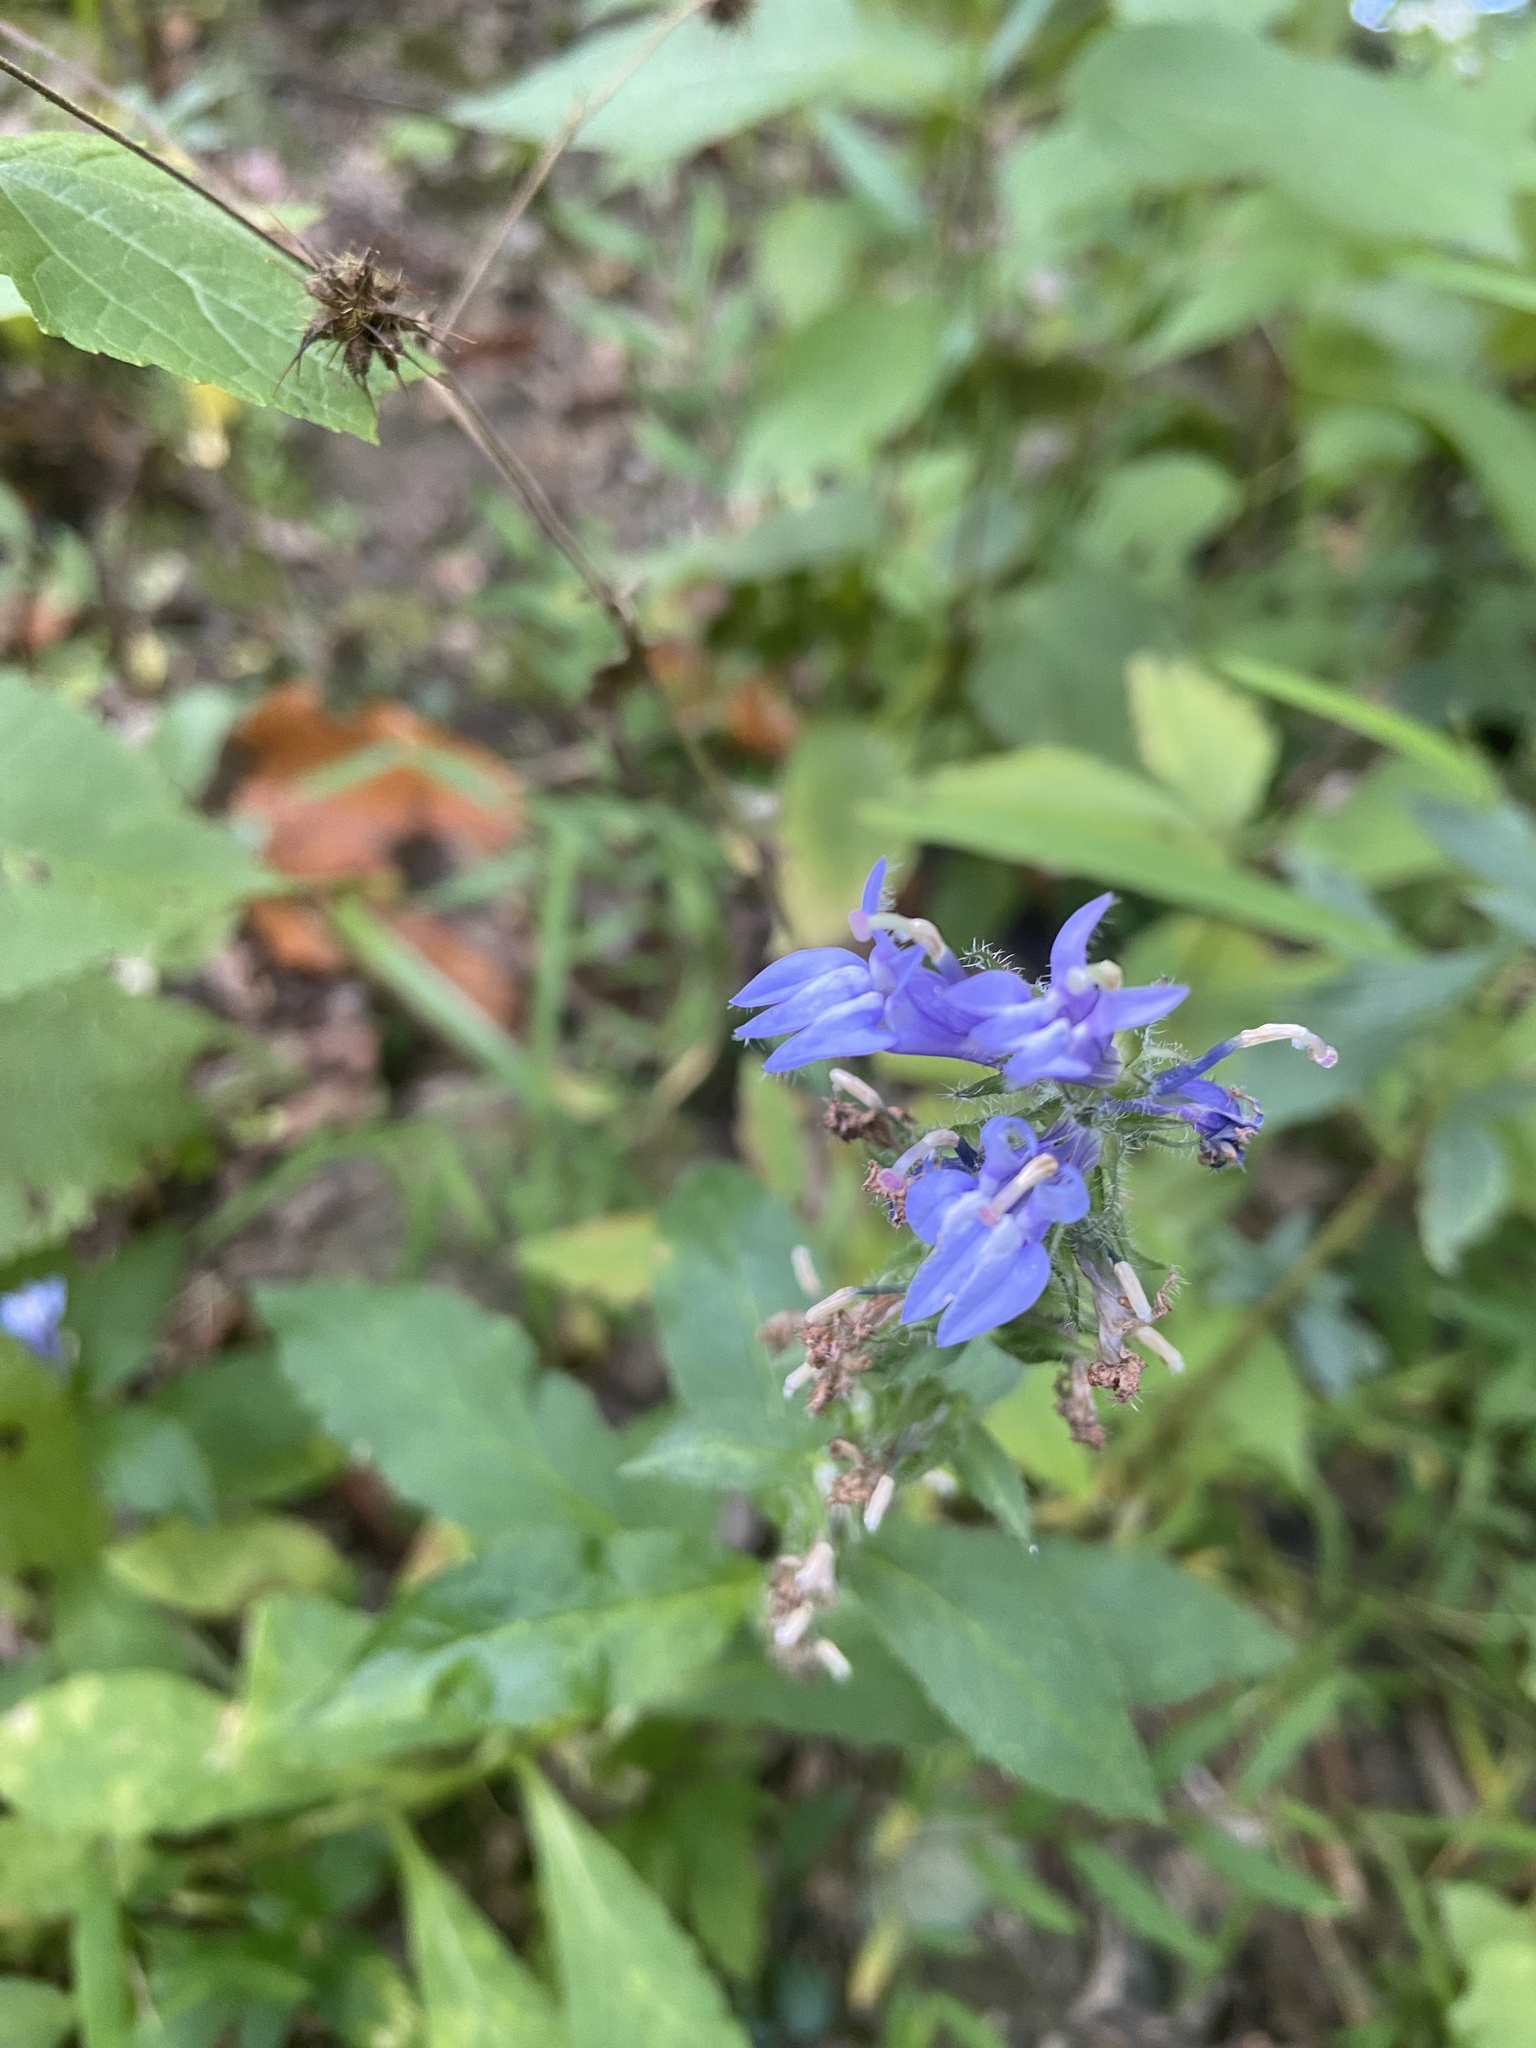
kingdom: Plantae
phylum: Tracheophyta
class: Magnoliopsida
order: Asterales
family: Campanulaceae
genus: Lobelia
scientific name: Lobelia siphilitica
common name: Great lobelia
